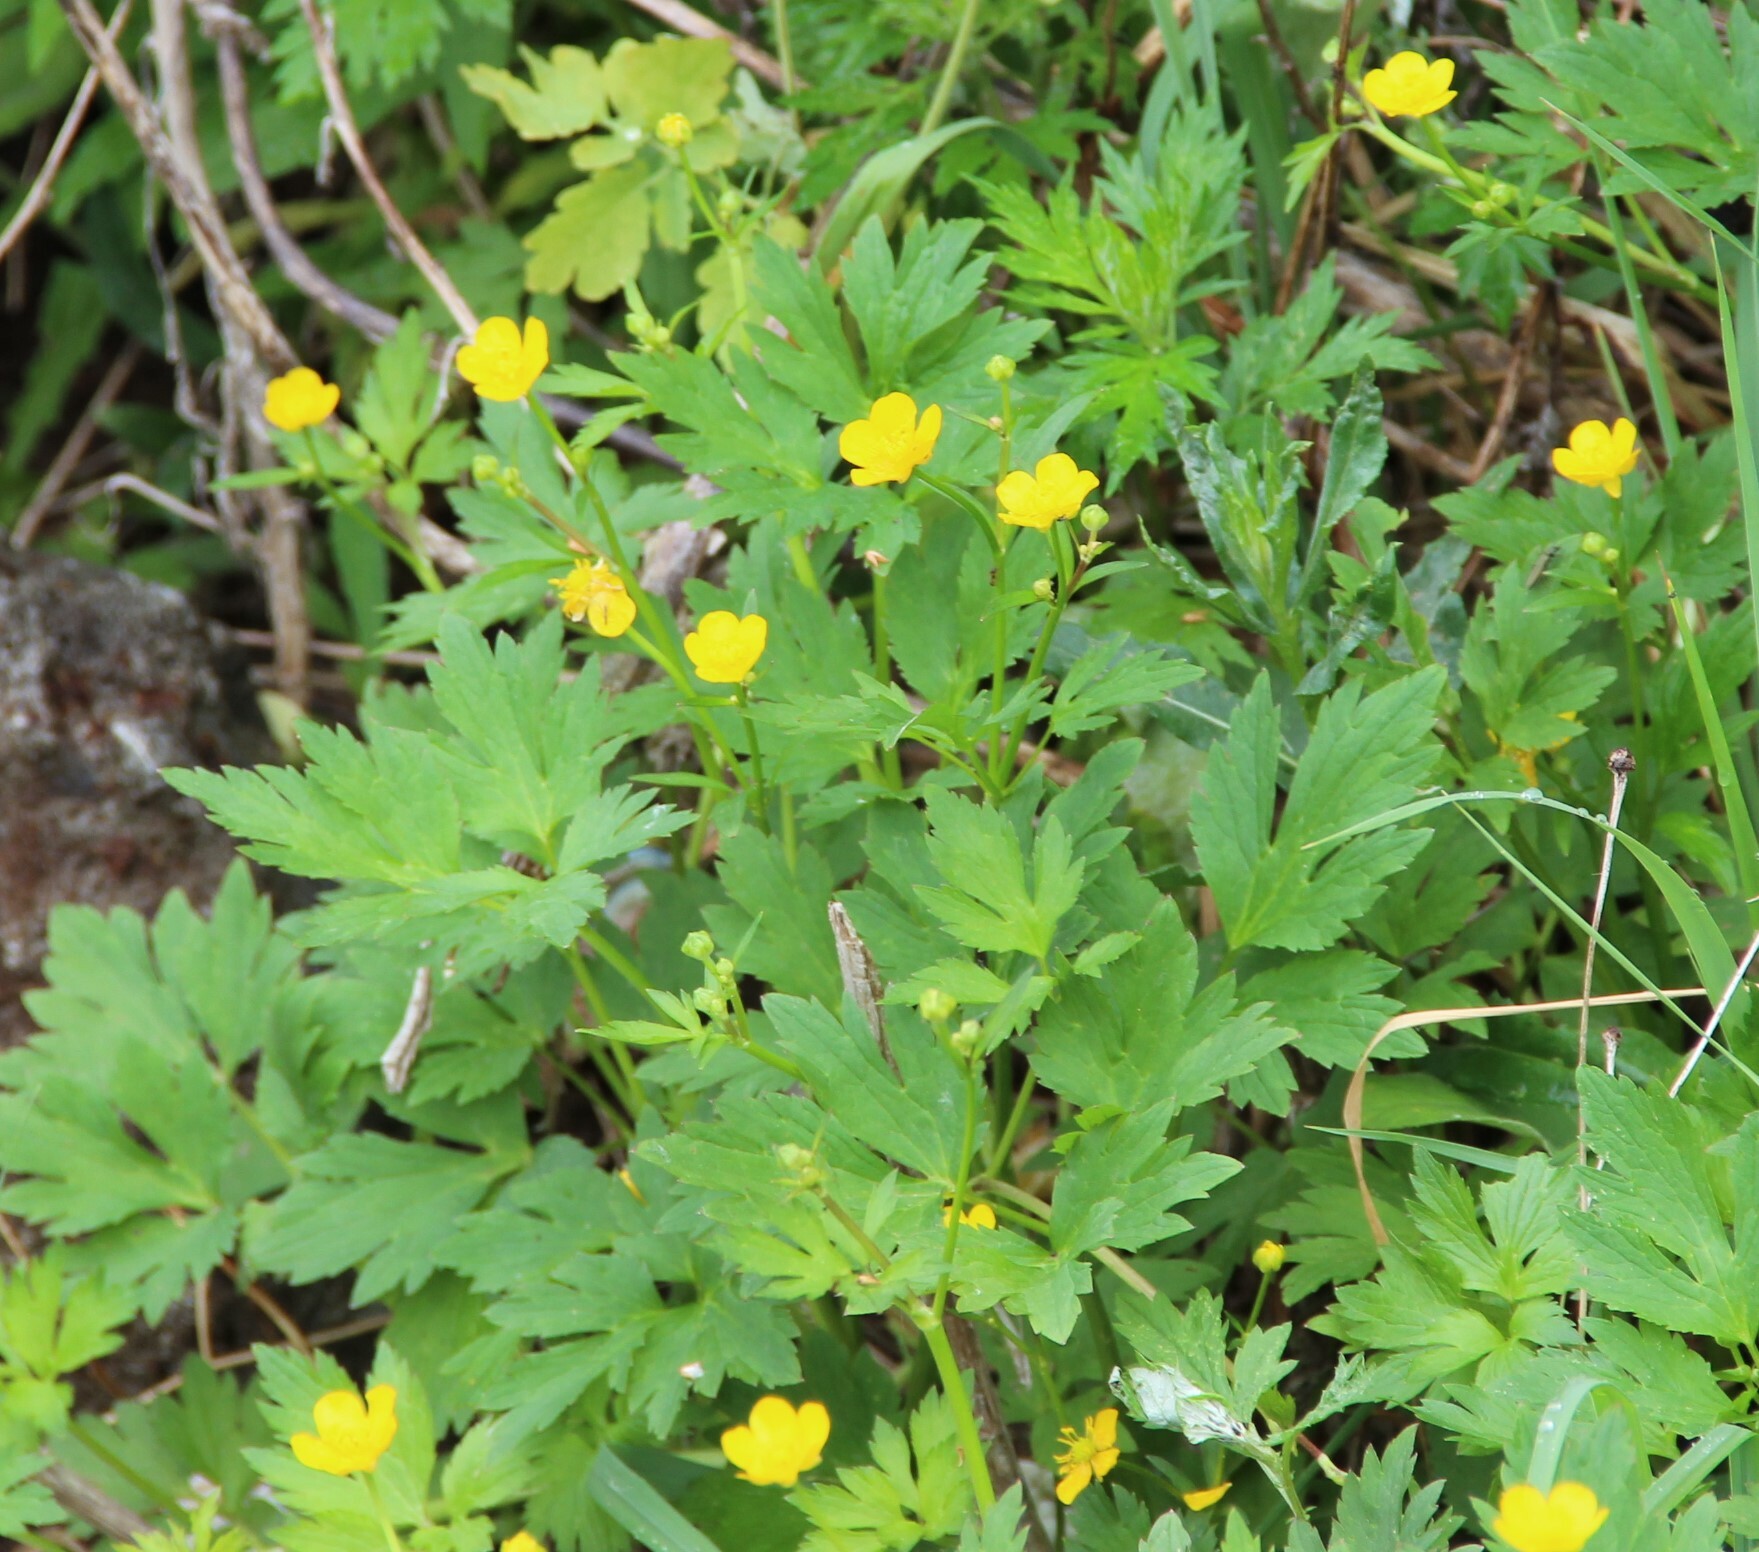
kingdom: Plantae
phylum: Tracheophyta
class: Magnoliopsida
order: Ranunculales
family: Ranunculaceae
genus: Ranunculus
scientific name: Ranunculus repens
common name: Creeping buttercup
